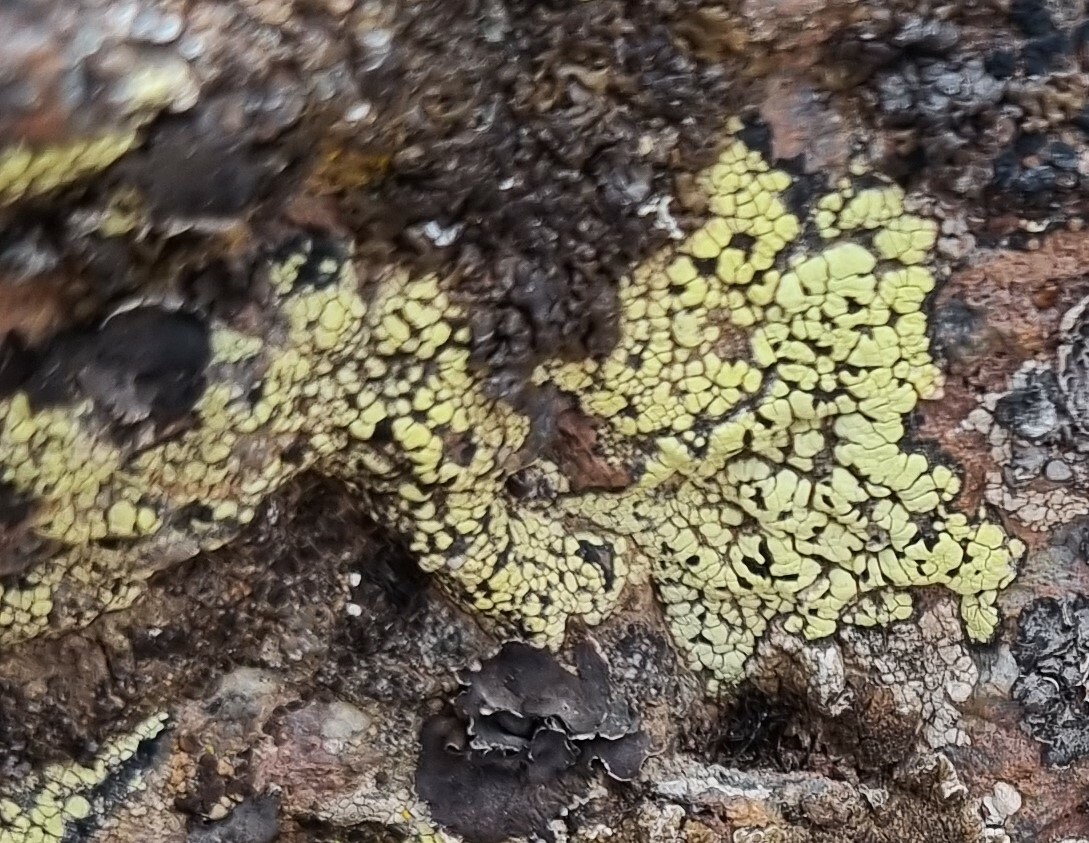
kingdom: Fungi
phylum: Ascomycota
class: Lecanoromycetes
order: Rhizocarpales
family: Rhizocarpaceae
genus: Rhizocarpon
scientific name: Rhizocarpon geographicum
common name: Yellow map lichen
